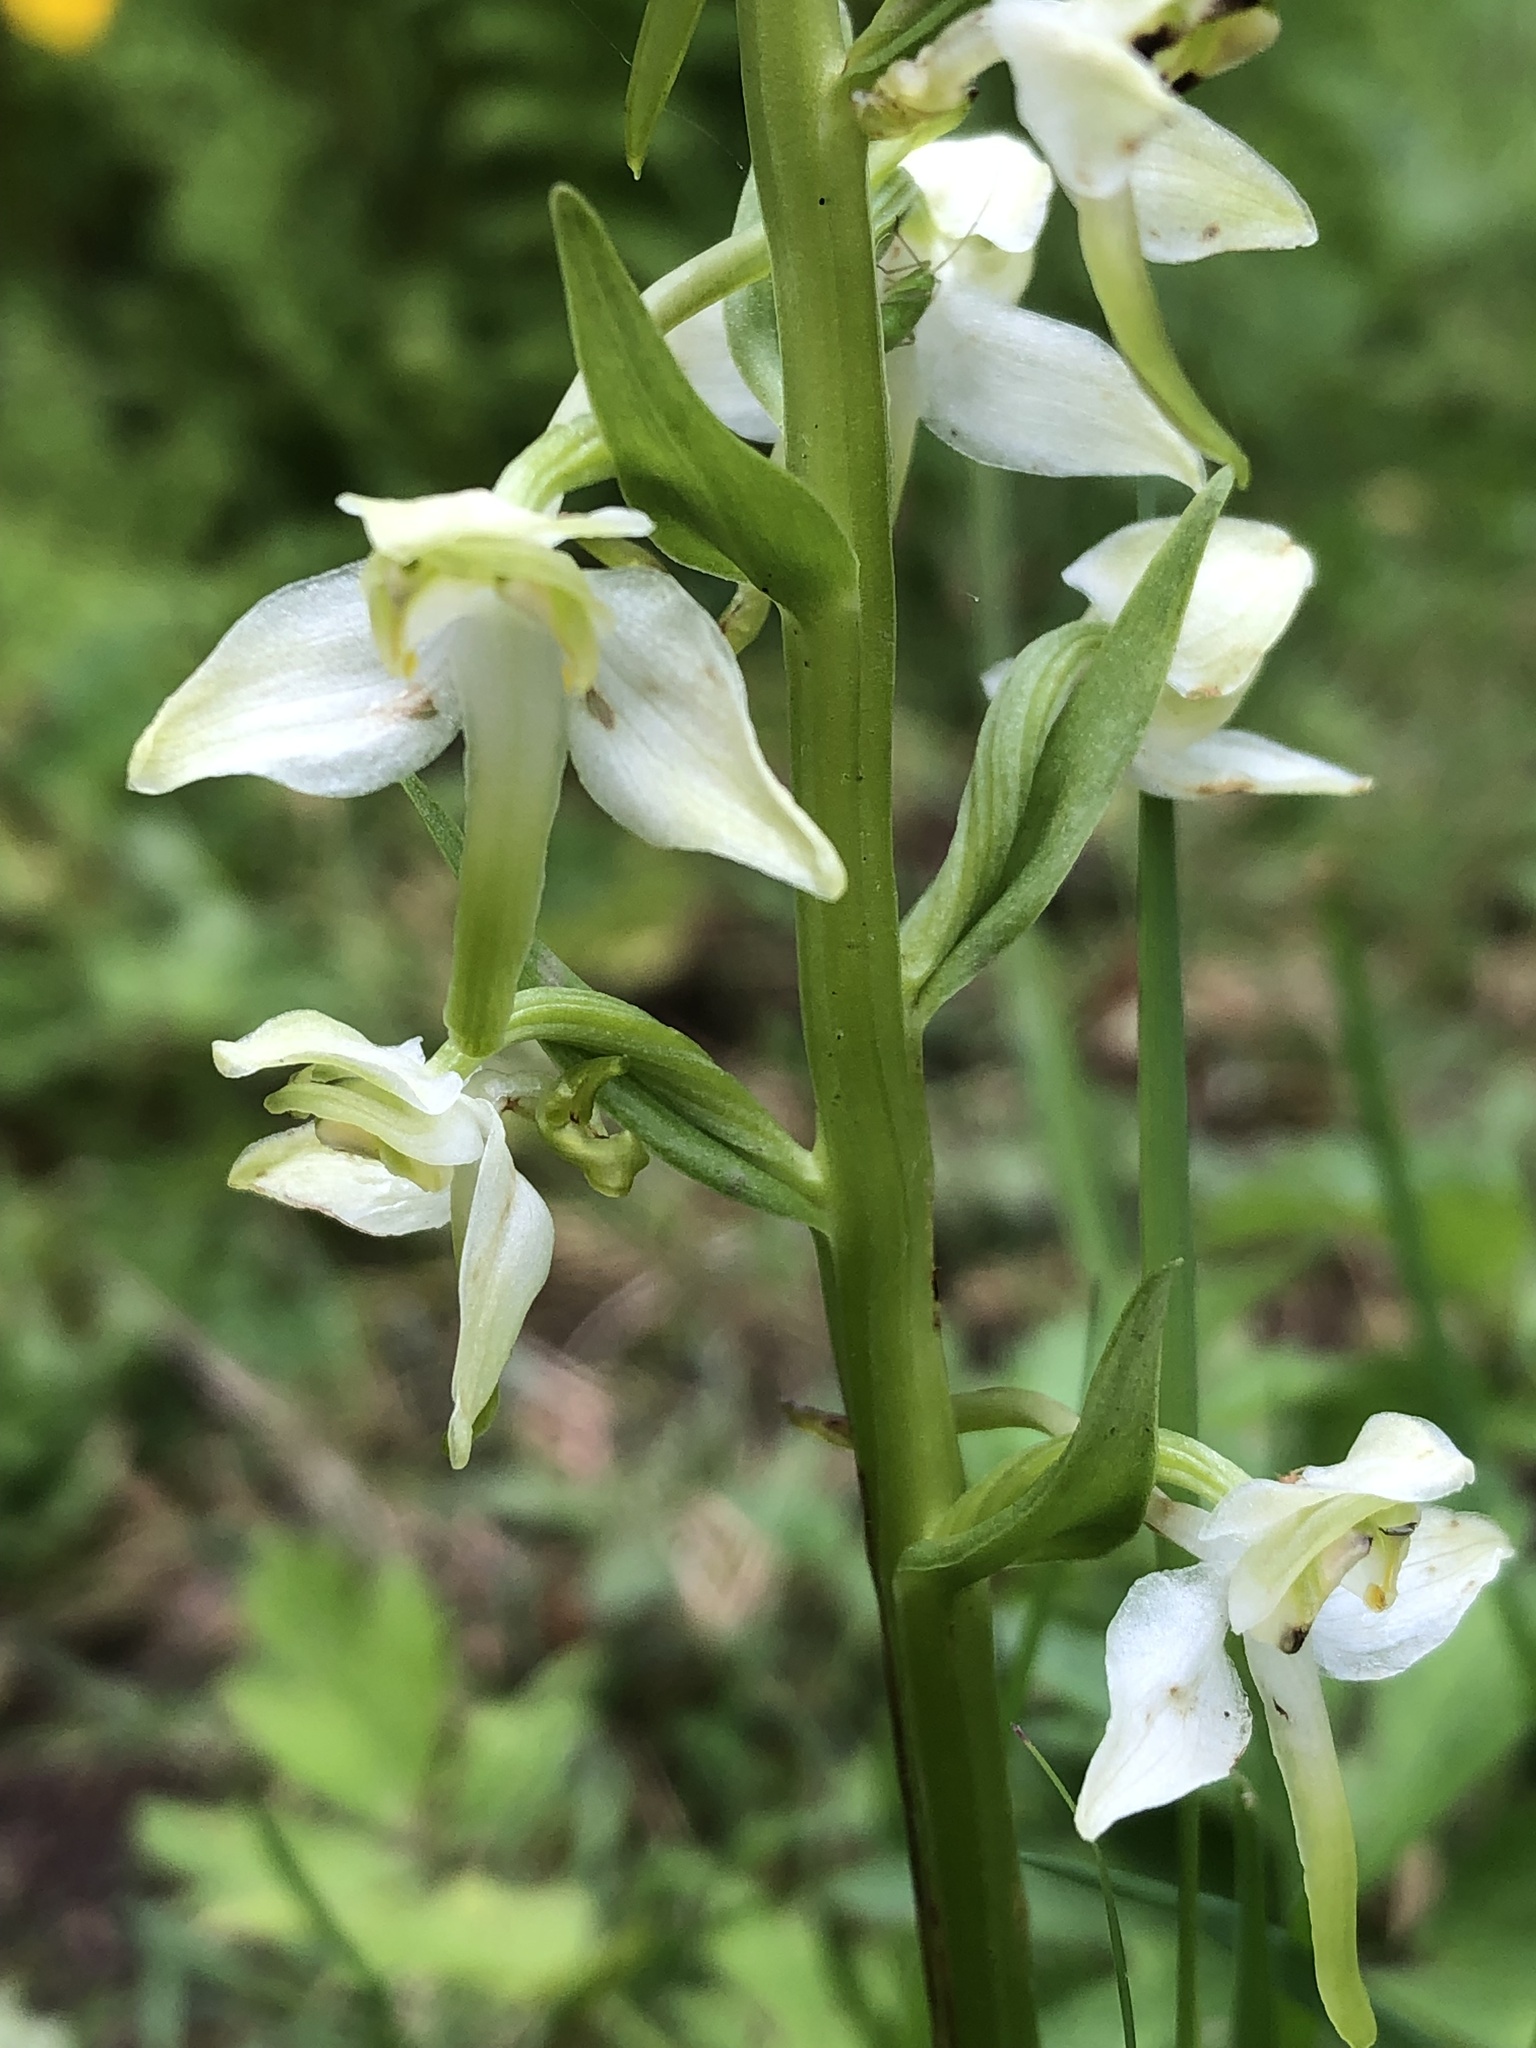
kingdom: Plantae
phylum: Tracheophyta
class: Liliopsida
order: Asparagales
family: Orchidaceae
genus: Platanthera
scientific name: Platanthera chlorantha
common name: Greater butterfly-orchid
